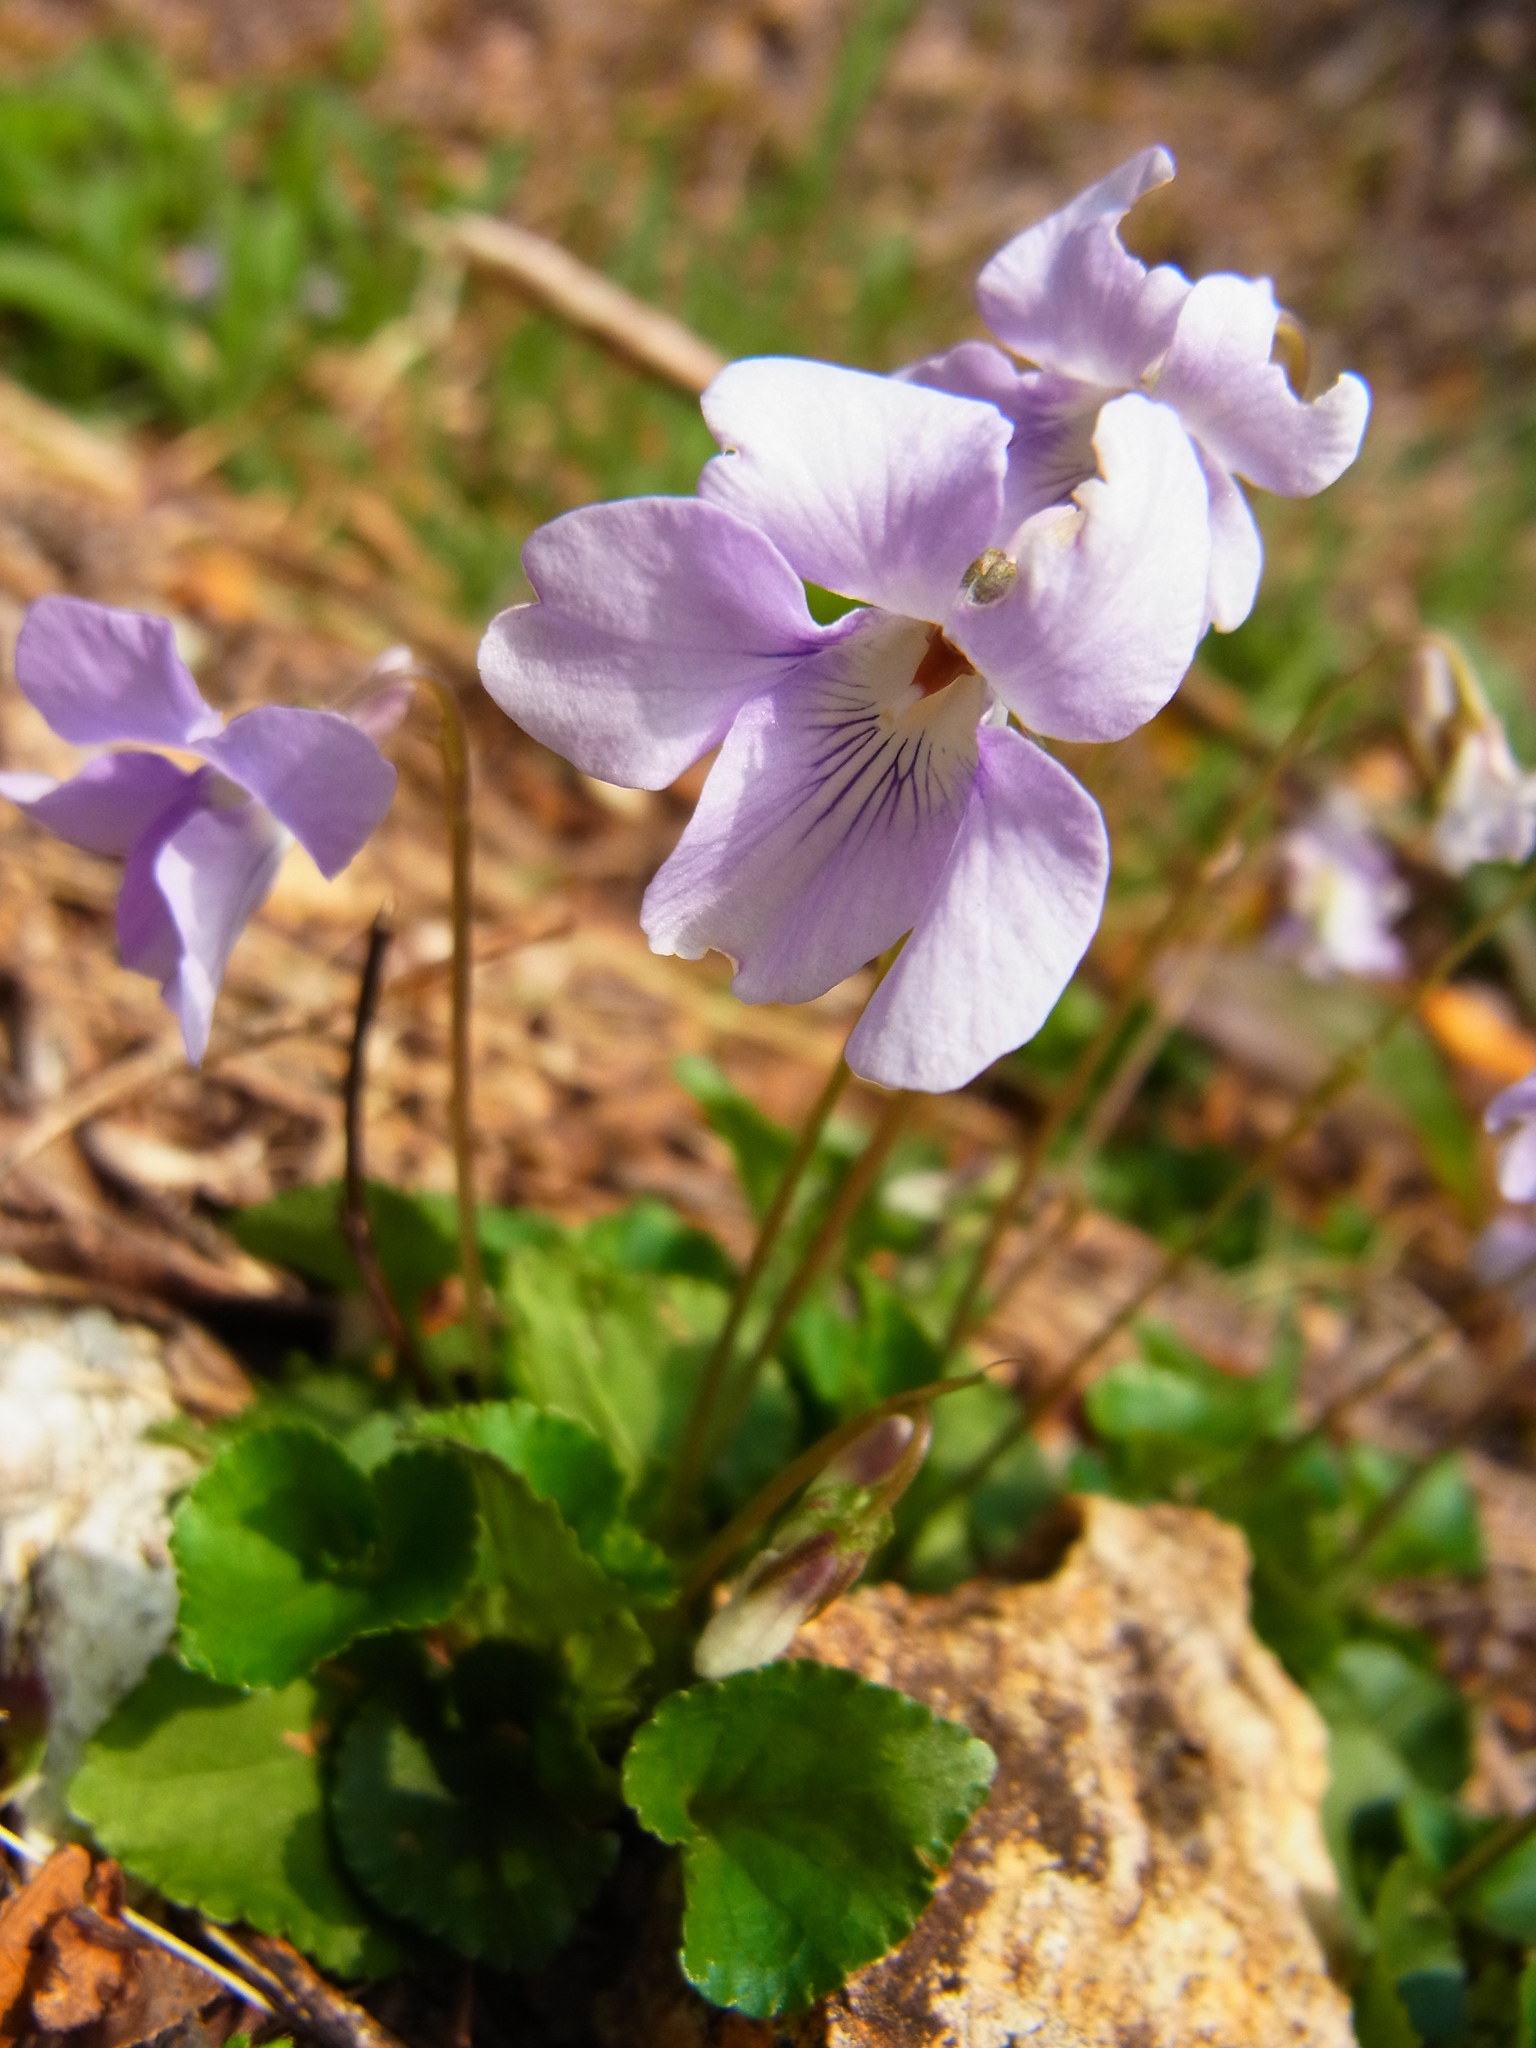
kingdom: Plantae
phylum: Tracheophyta
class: Magnoliopsida
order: Malpighiales
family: Violaceae
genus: Viola
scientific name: Viola grypoceras
